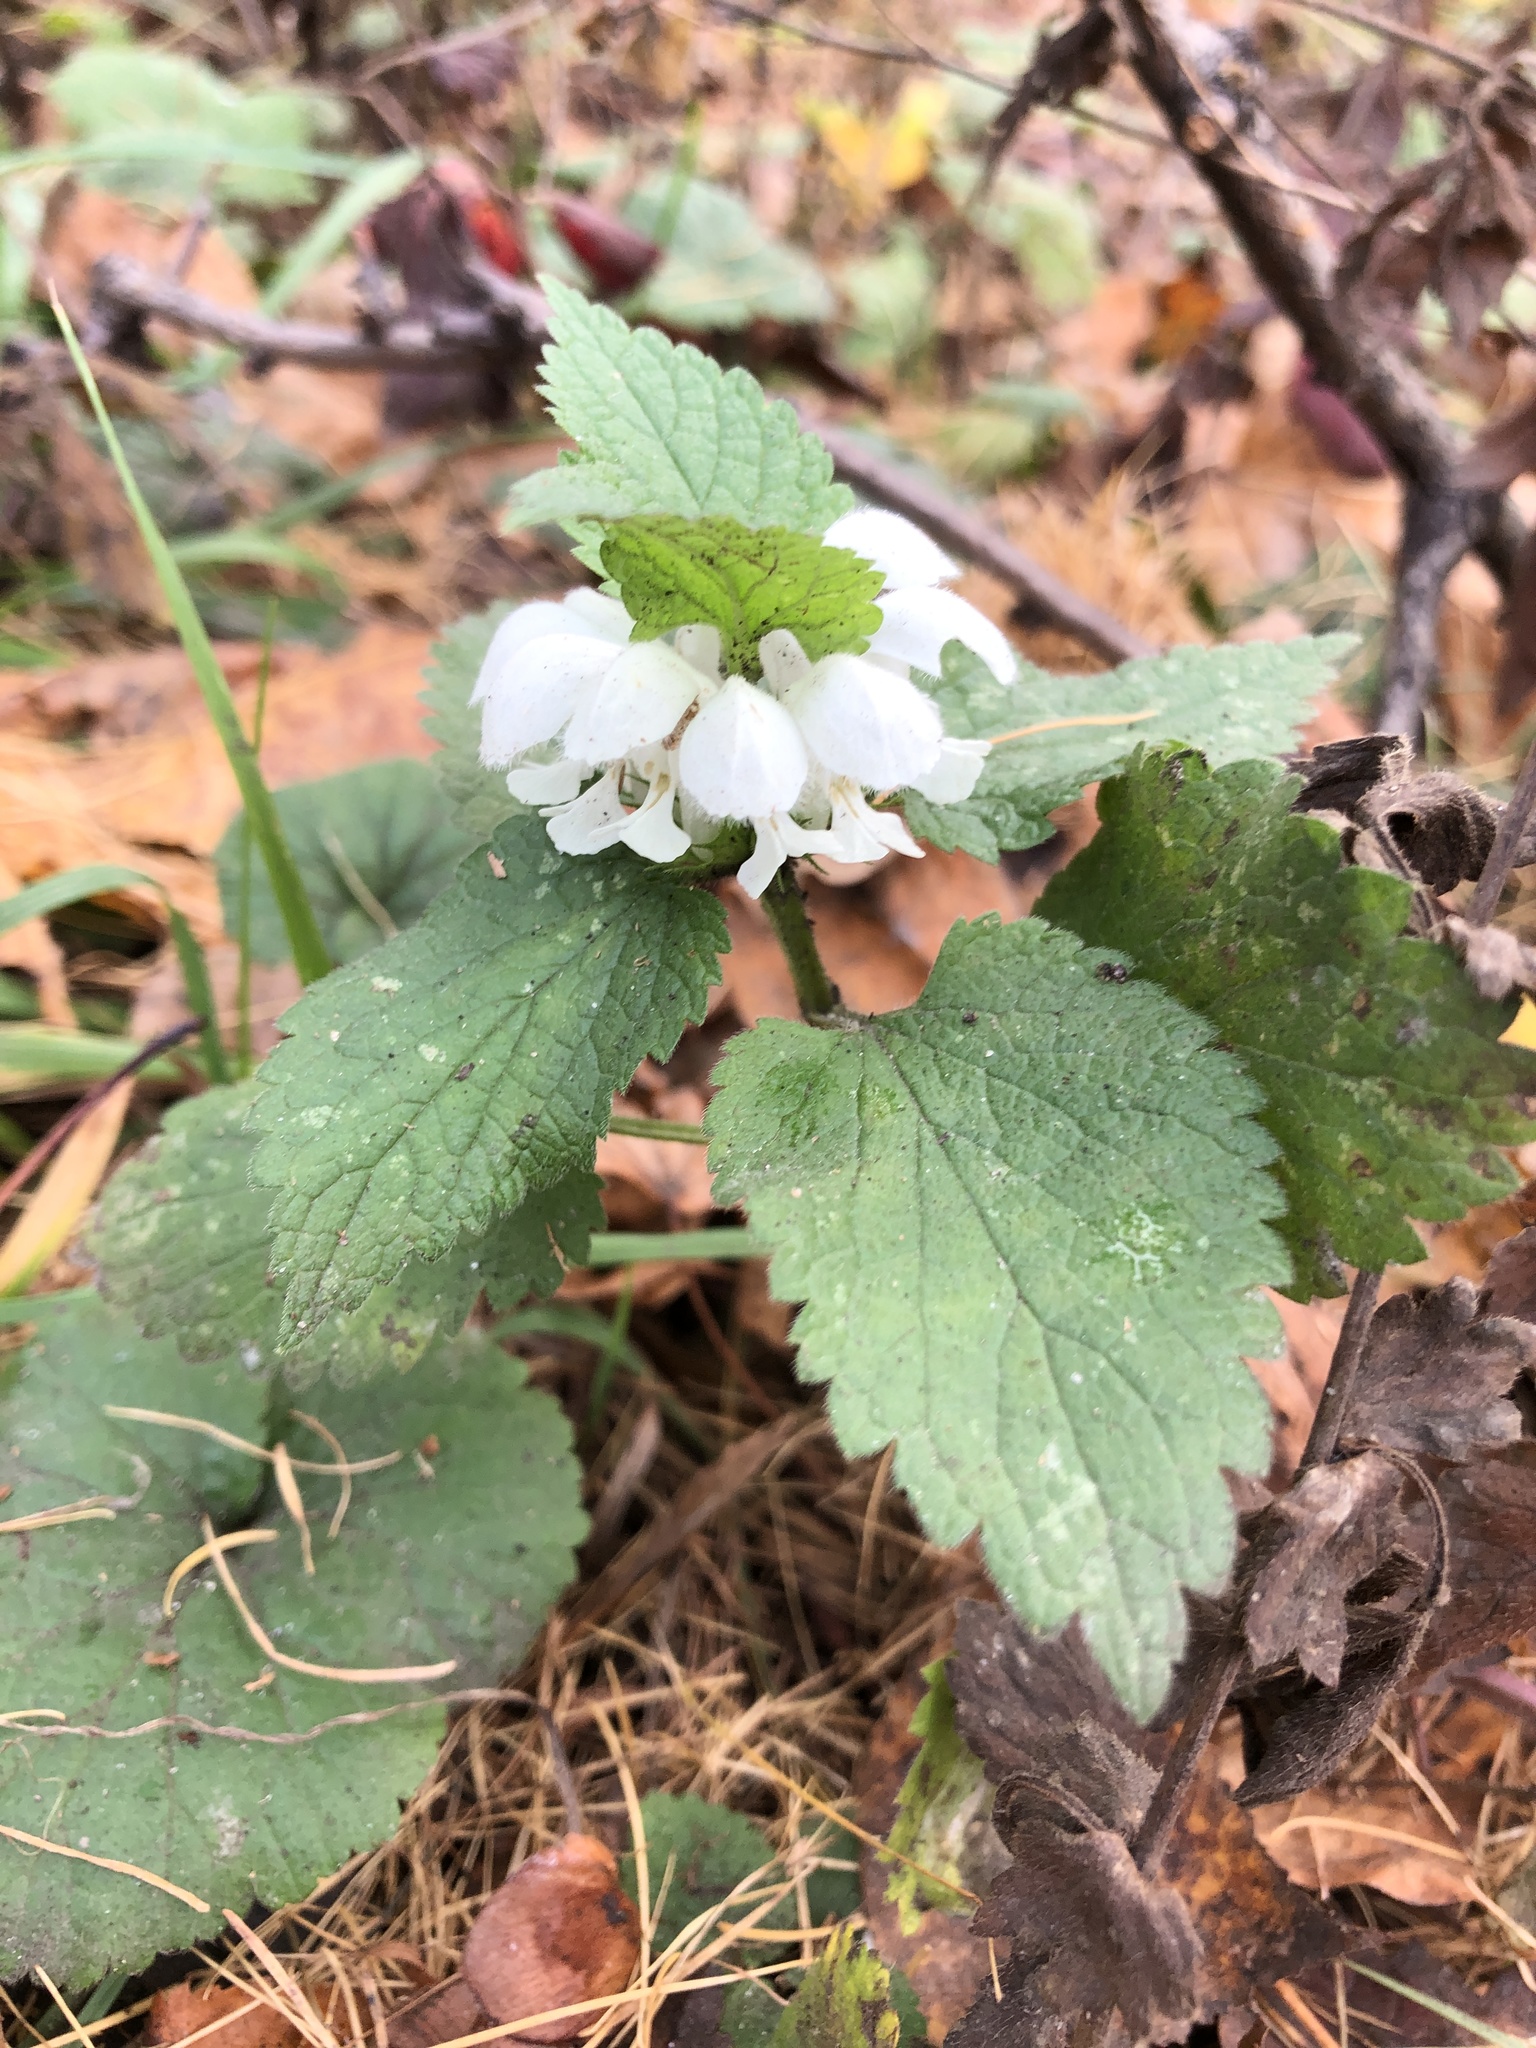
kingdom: Plantae
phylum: Tracheophyta
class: Magnoliopsida
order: Lamiales
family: Lamiaceae
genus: Lamium
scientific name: Lamium album
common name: White dead-nettle
